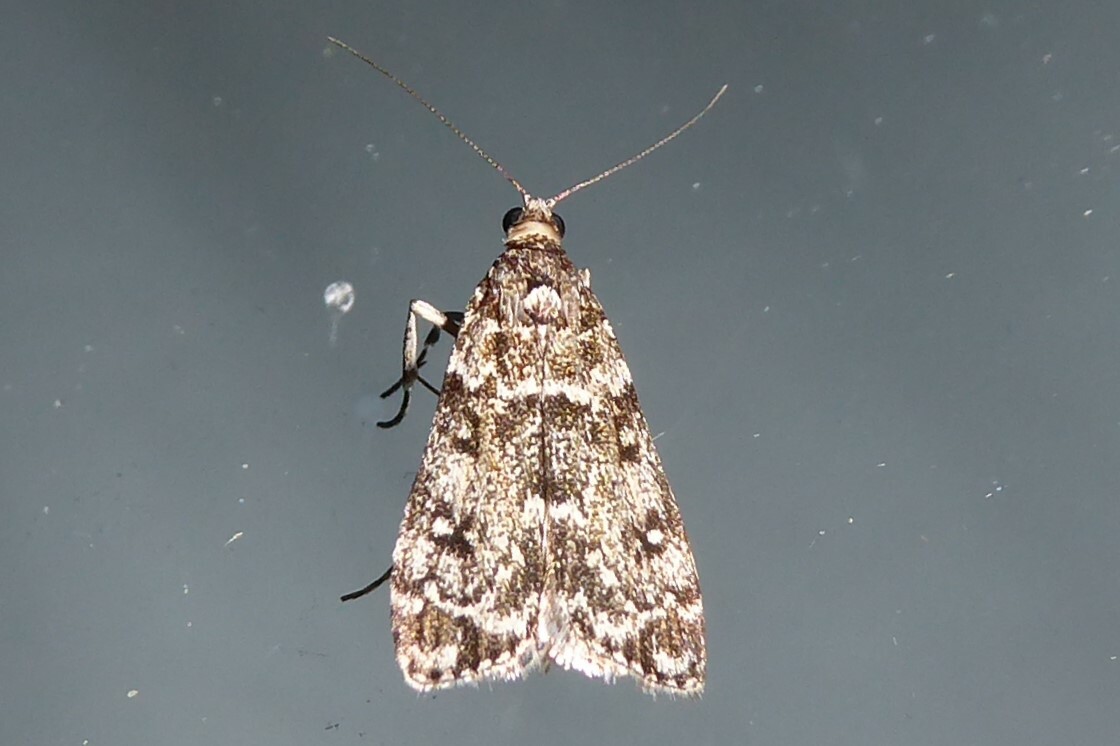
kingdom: Animalia
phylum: Arthropoda
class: Insecta
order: Lepidoptera
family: Crambidae
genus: Eudonia
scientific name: Eudonia philerga
